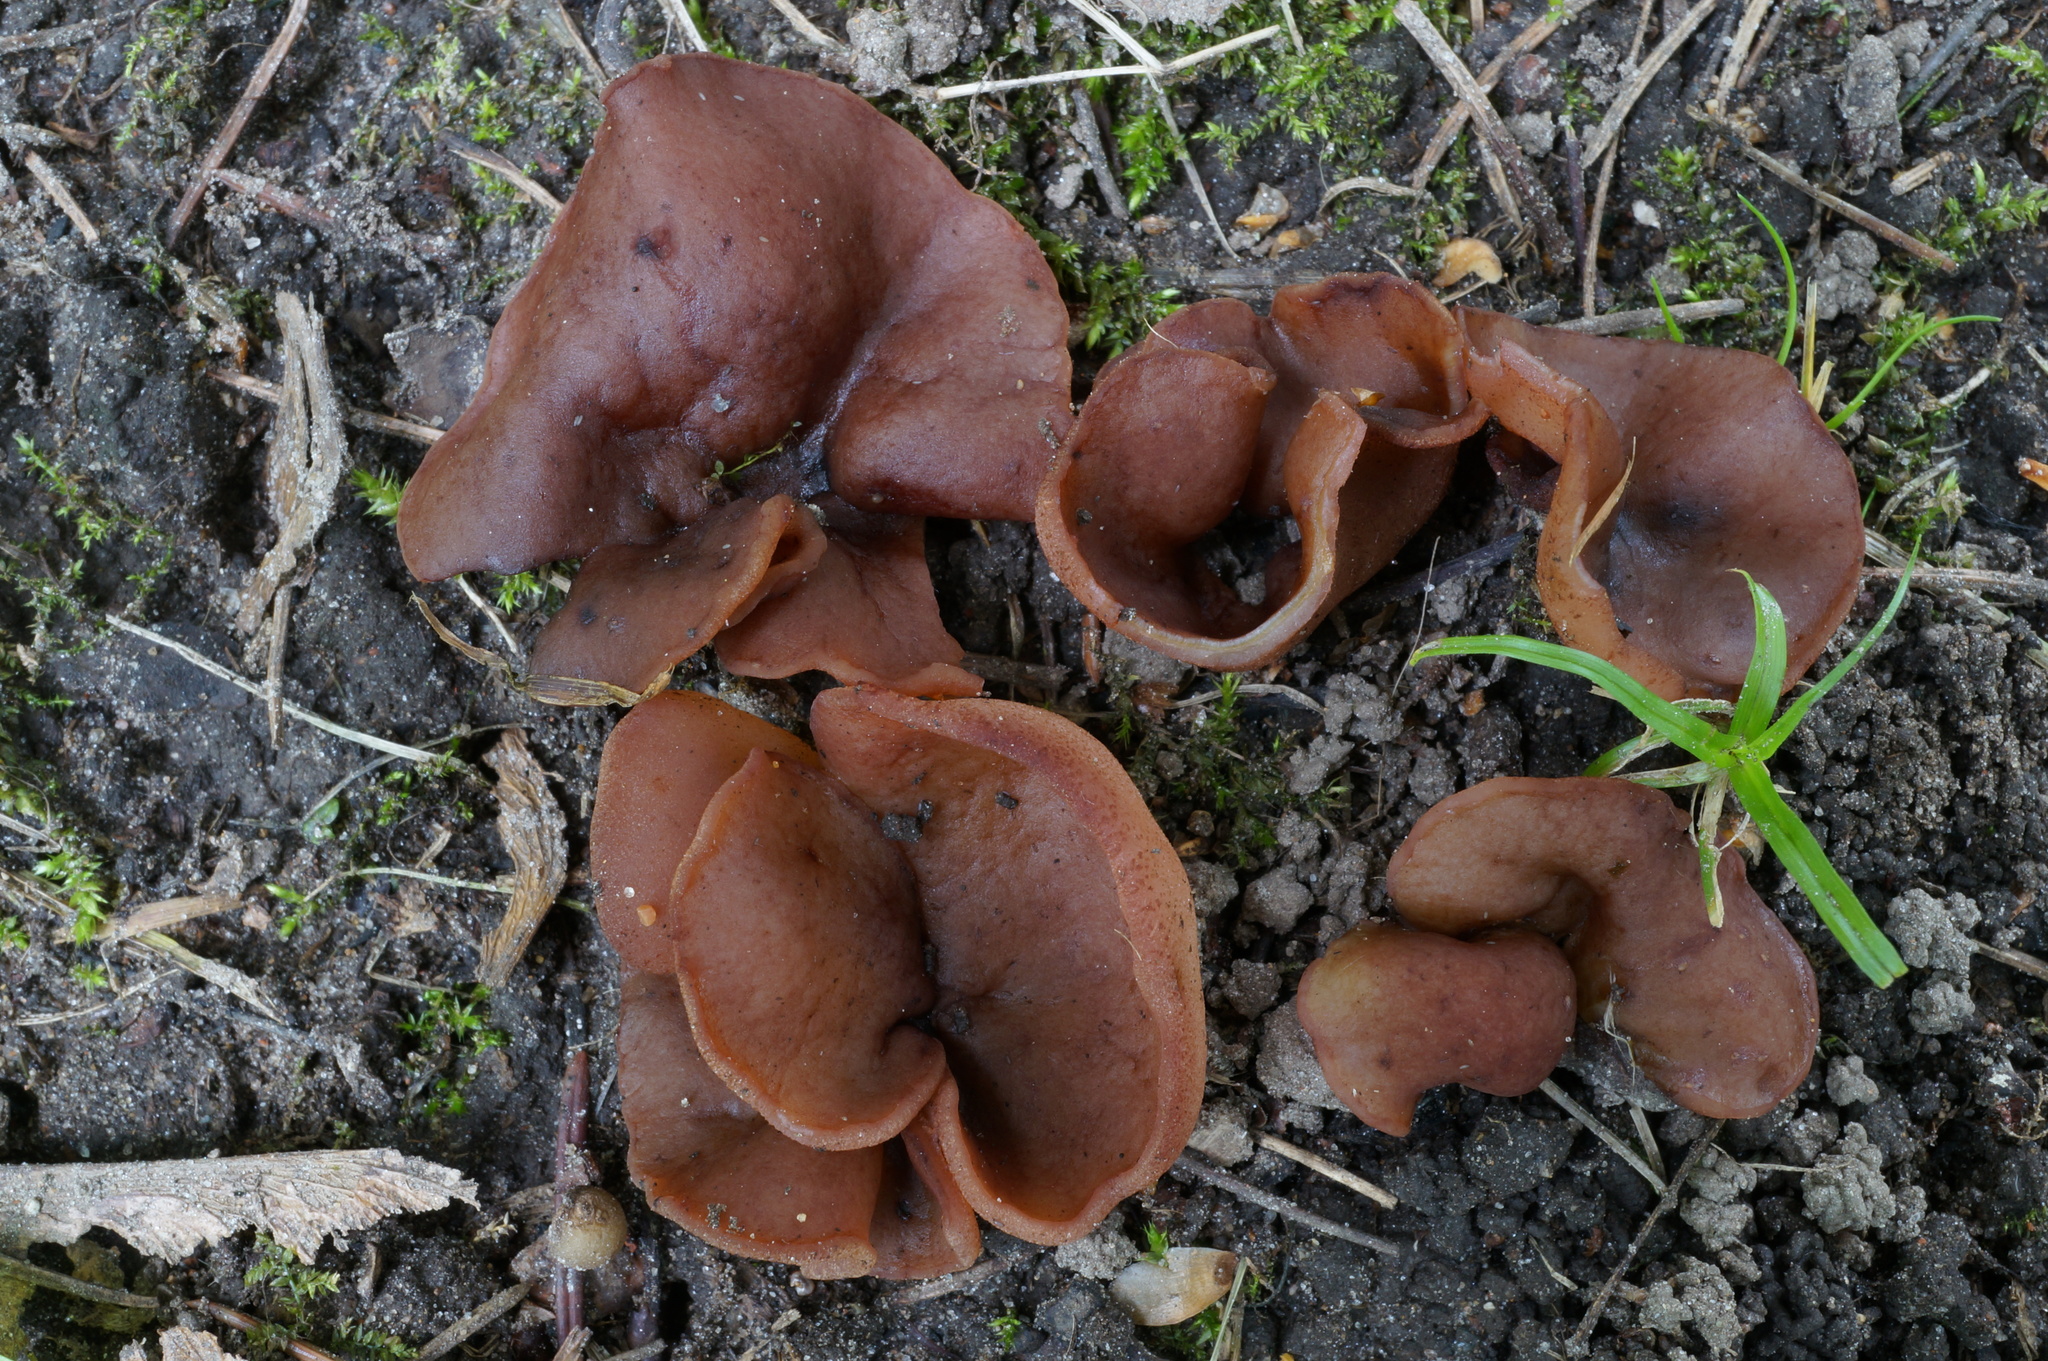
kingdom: Fungi
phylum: Ascomycota
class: Pezizomycetes
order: Pezizales
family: Pezizaceae
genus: Peziza
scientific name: Peziza depressa
